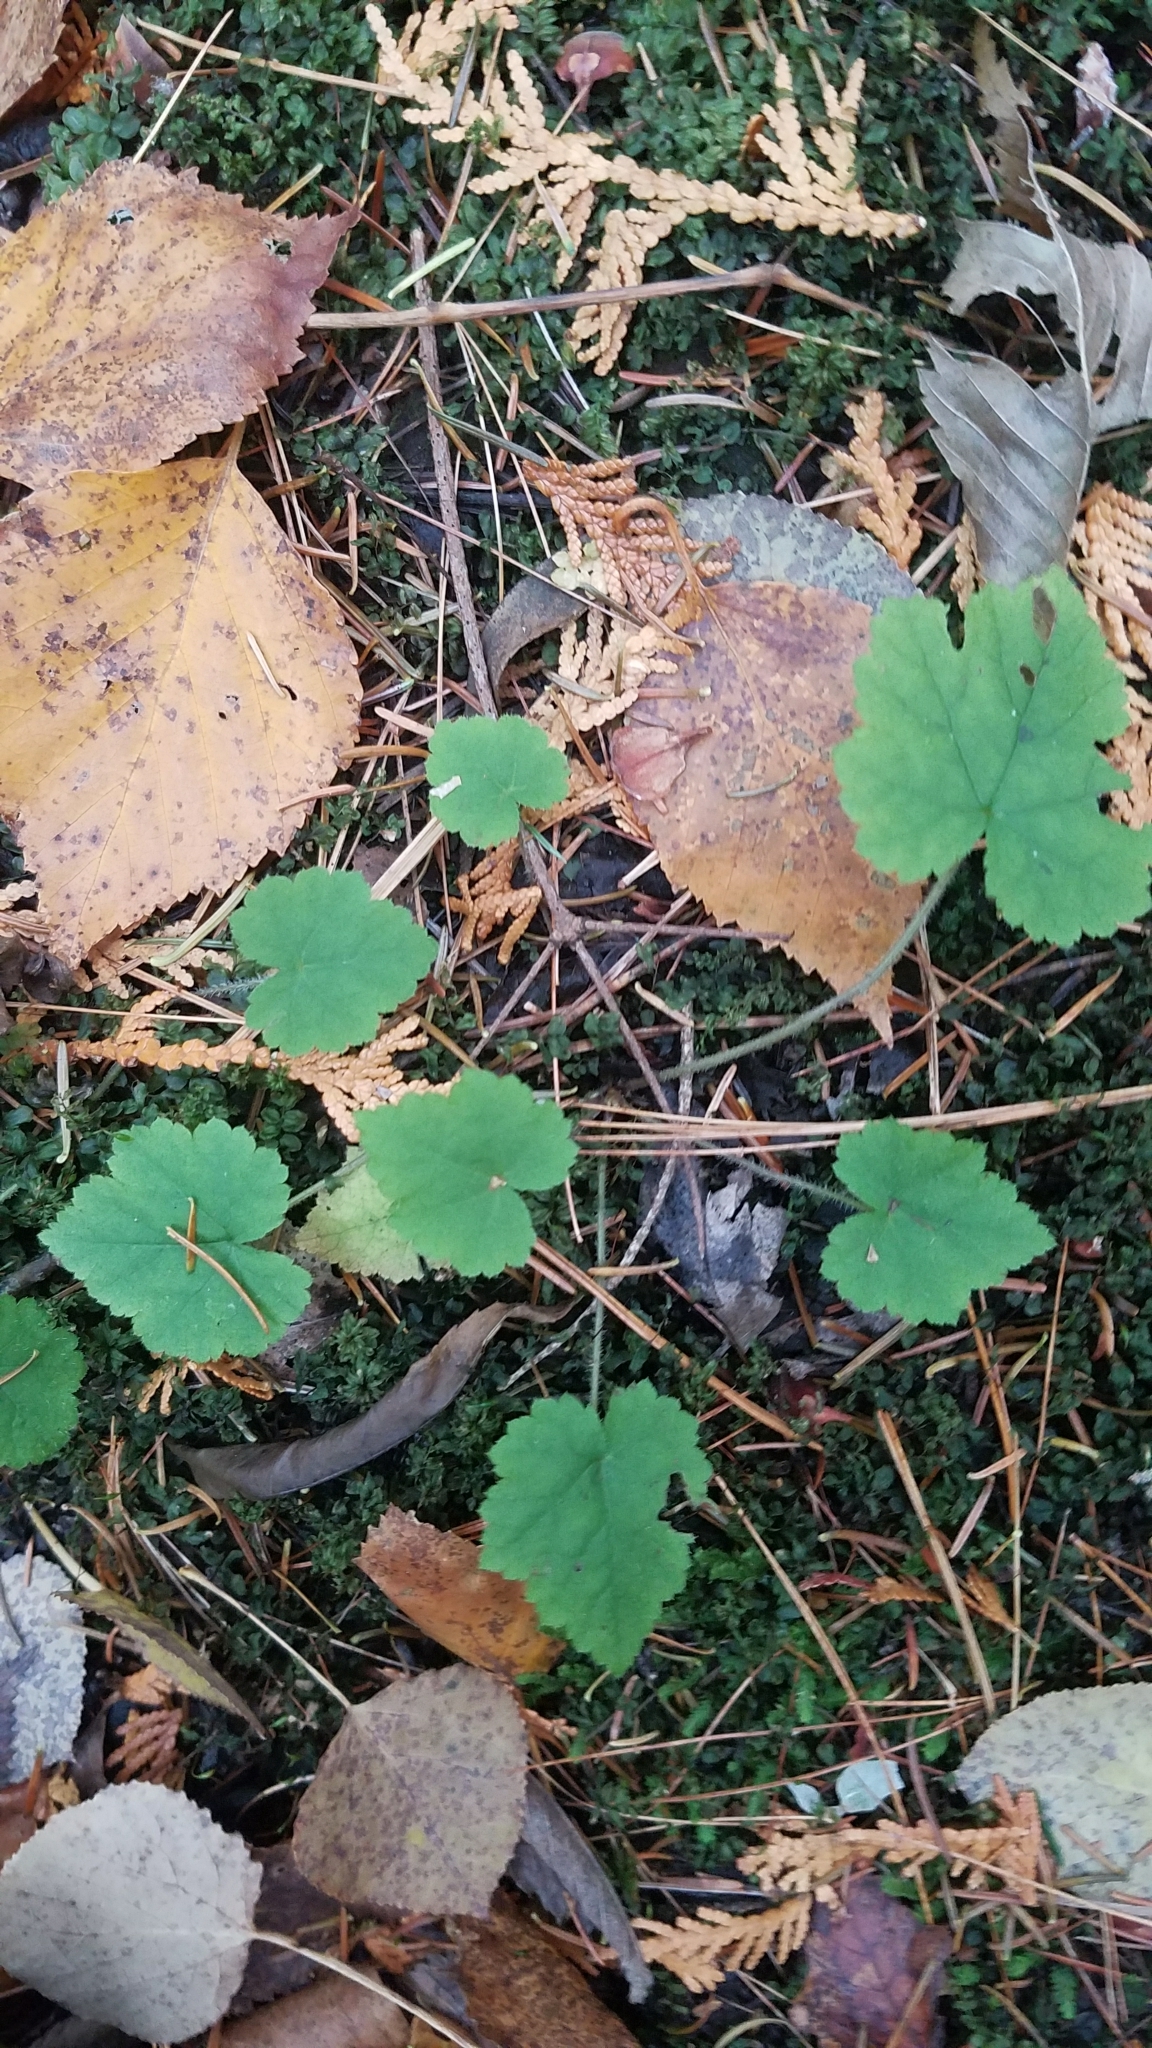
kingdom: Plantae
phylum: Tracheophyta
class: Magnoliopsida
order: Saxifragales
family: Saxifragaceae
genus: Tiarella
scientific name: Tiarella stolonifera
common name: Stoloniferous foamflower
